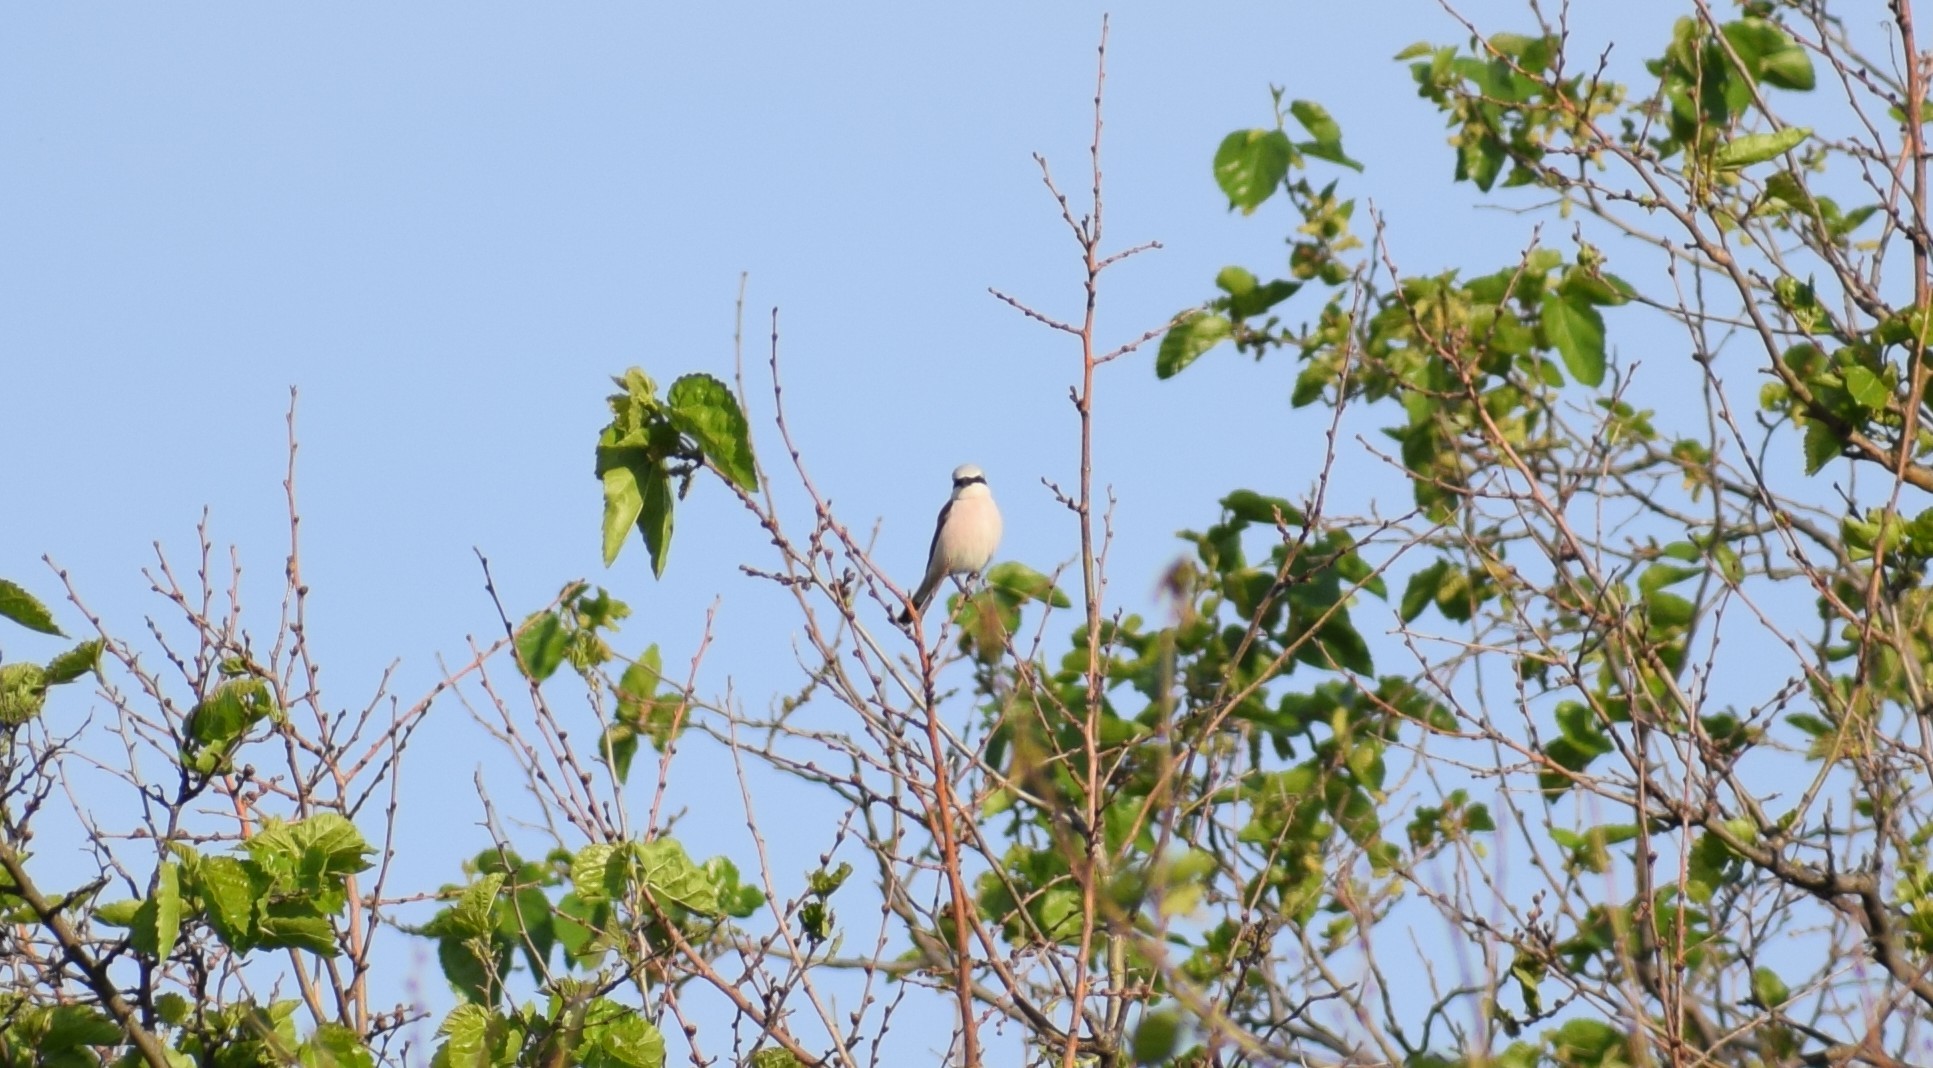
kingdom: Animalia
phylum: Chordata
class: Aves
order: Passeriformes
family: Laniidae
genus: Lanius
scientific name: Lanius collurio
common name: Red-backed shrike
